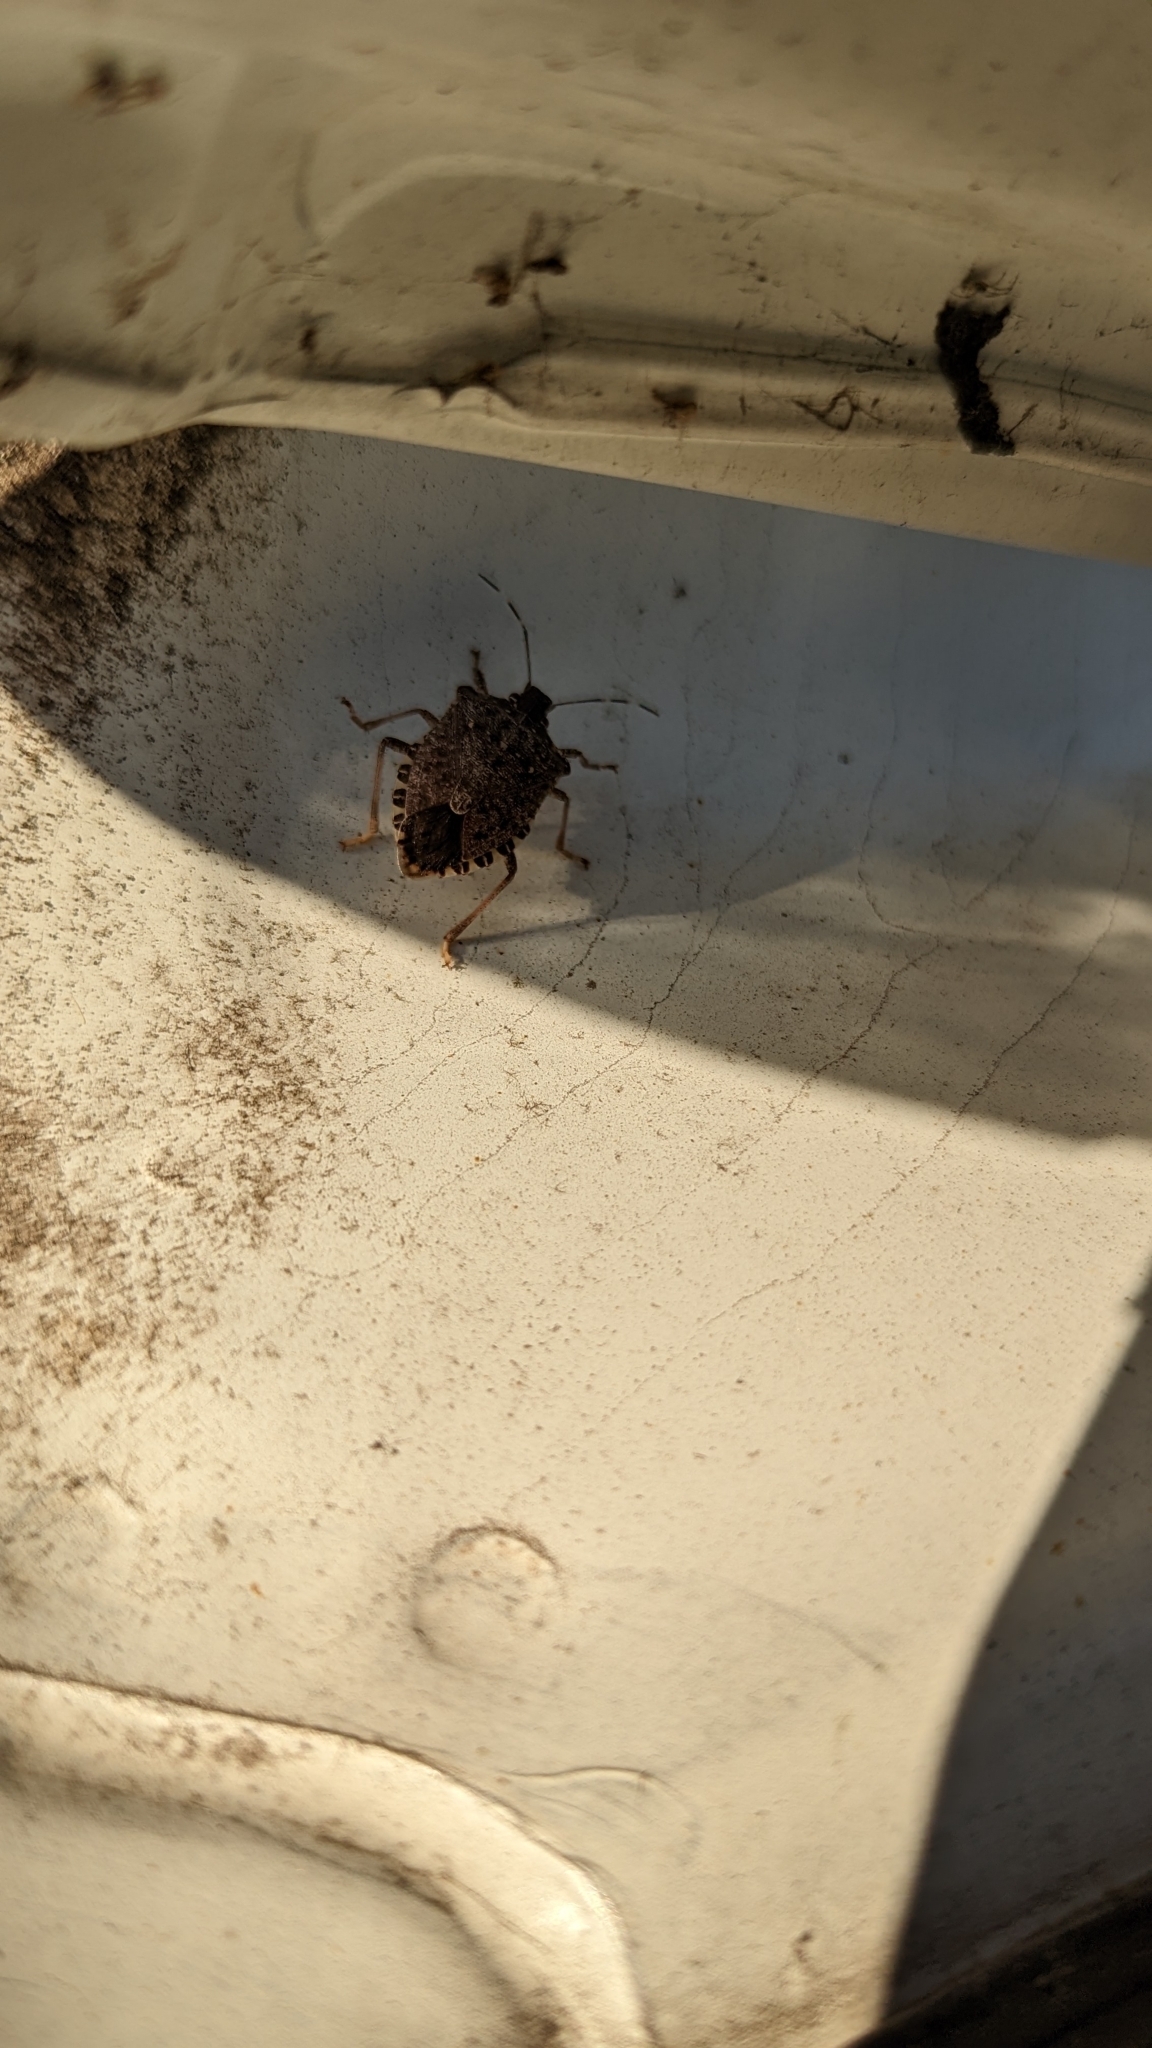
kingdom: Animalia
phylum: Arthropoda
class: Insecta
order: Hemiptera
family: Pentatomidae
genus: Halyomorpha
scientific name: Halyomorpha halys
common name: Brown marmorated stink bug
